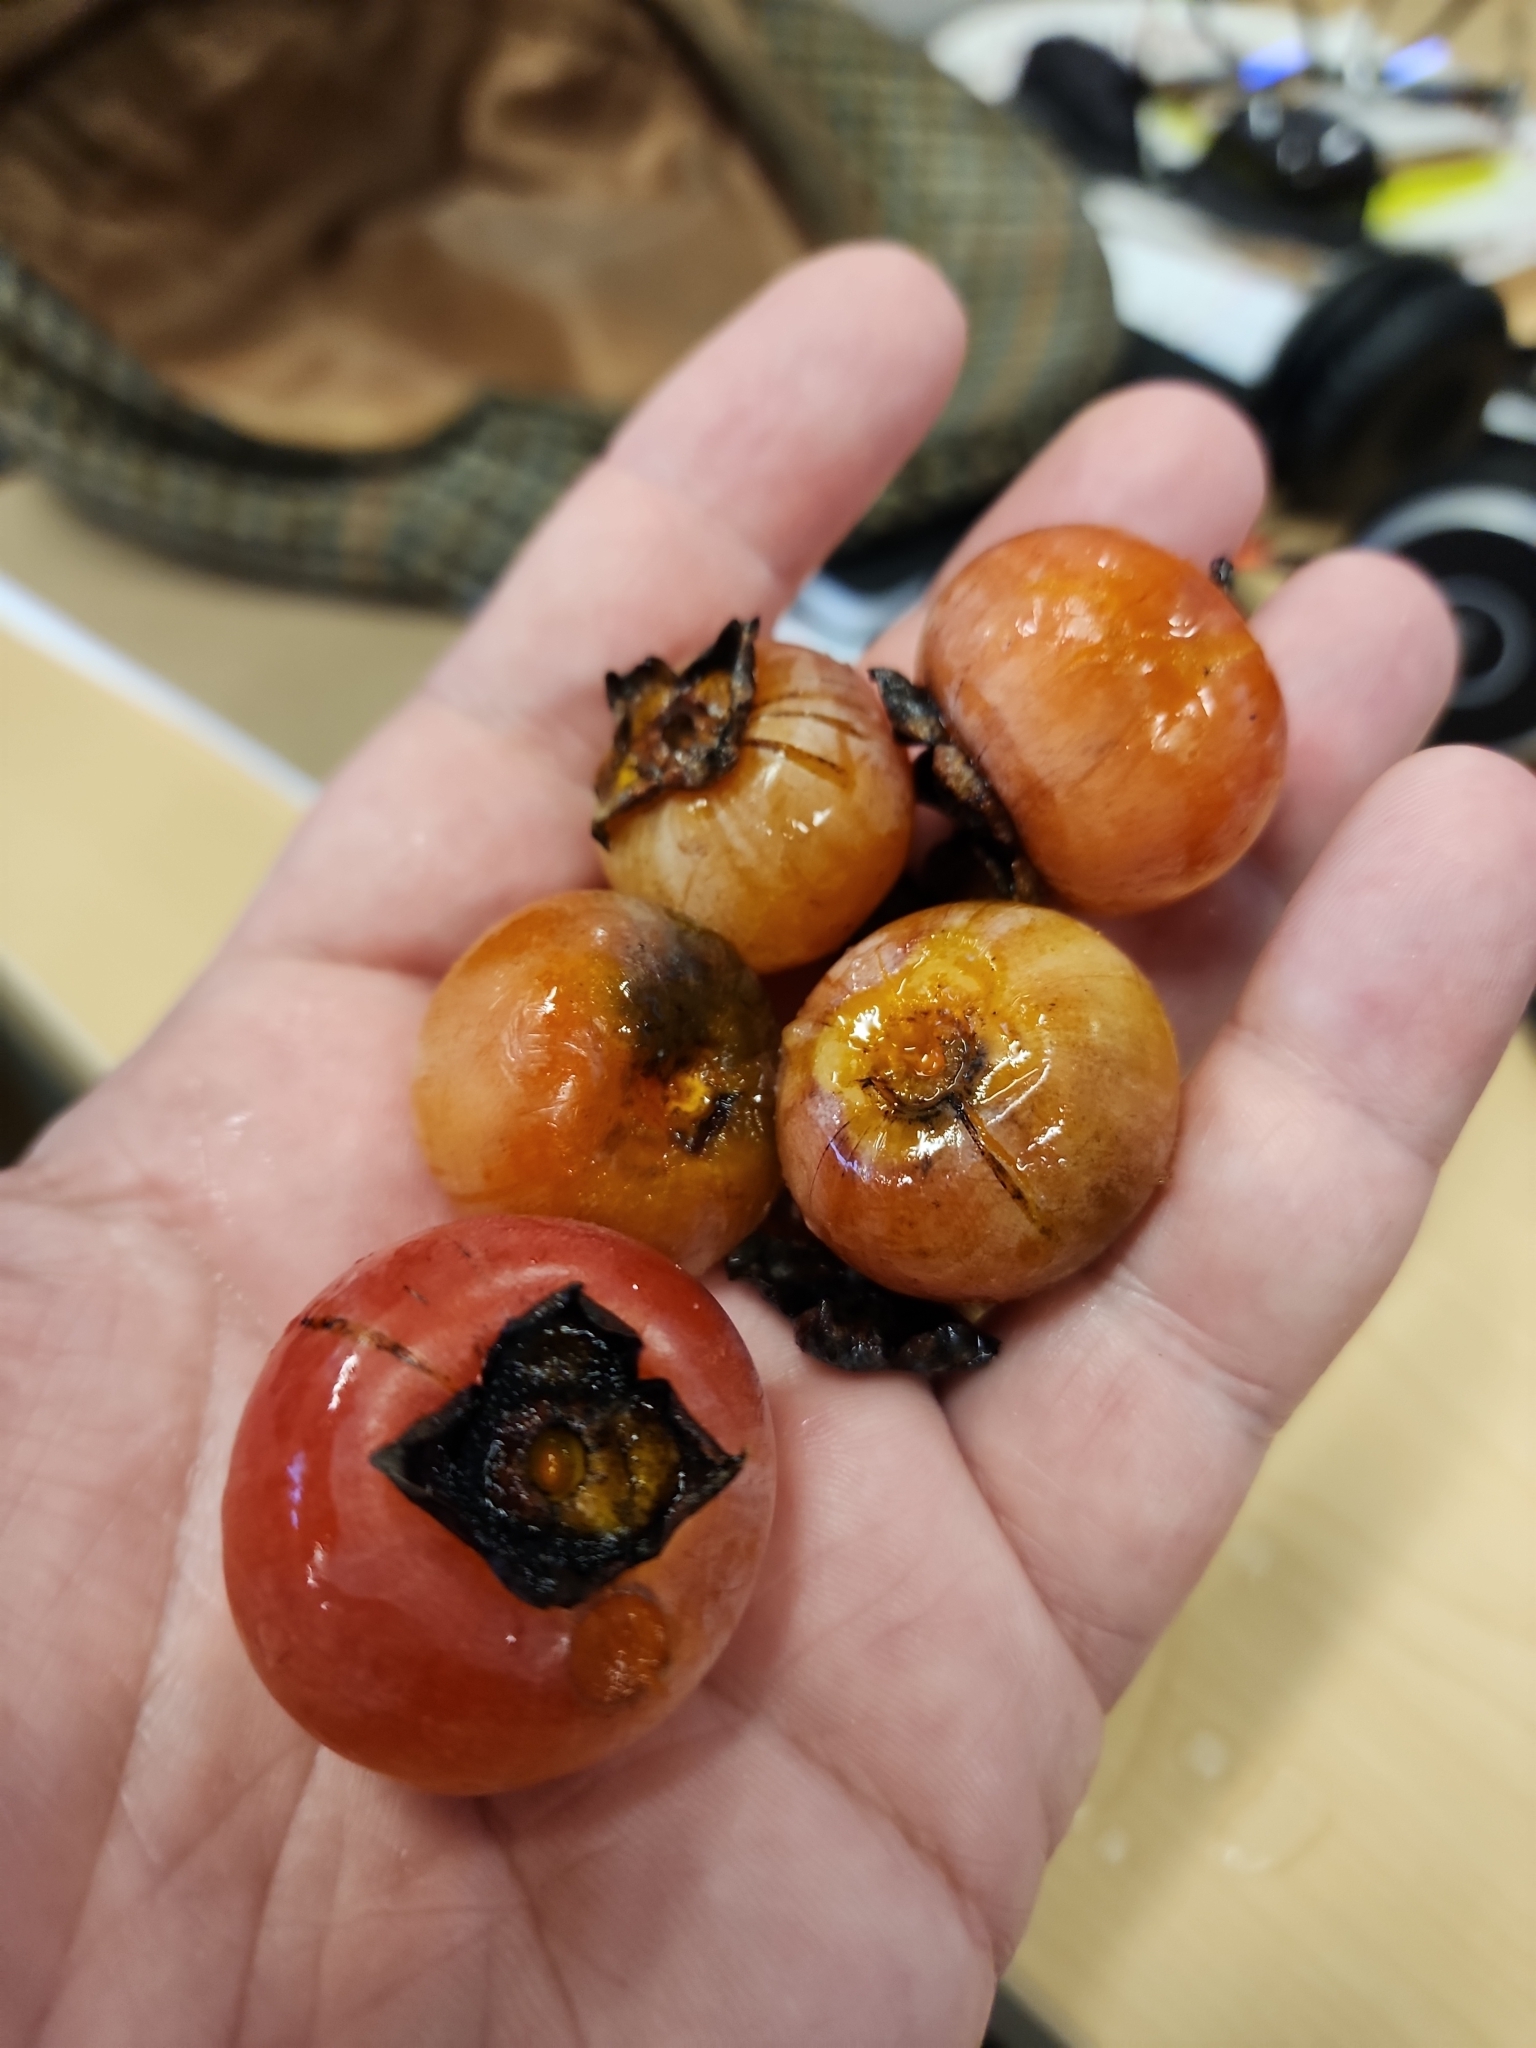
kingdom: Plantae
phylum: Tracheophyta
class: Magnoliopsida
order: Ericales
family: Ebenaceae
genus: Diospyros
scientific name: Diospyros virginiana
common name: Persimmon
